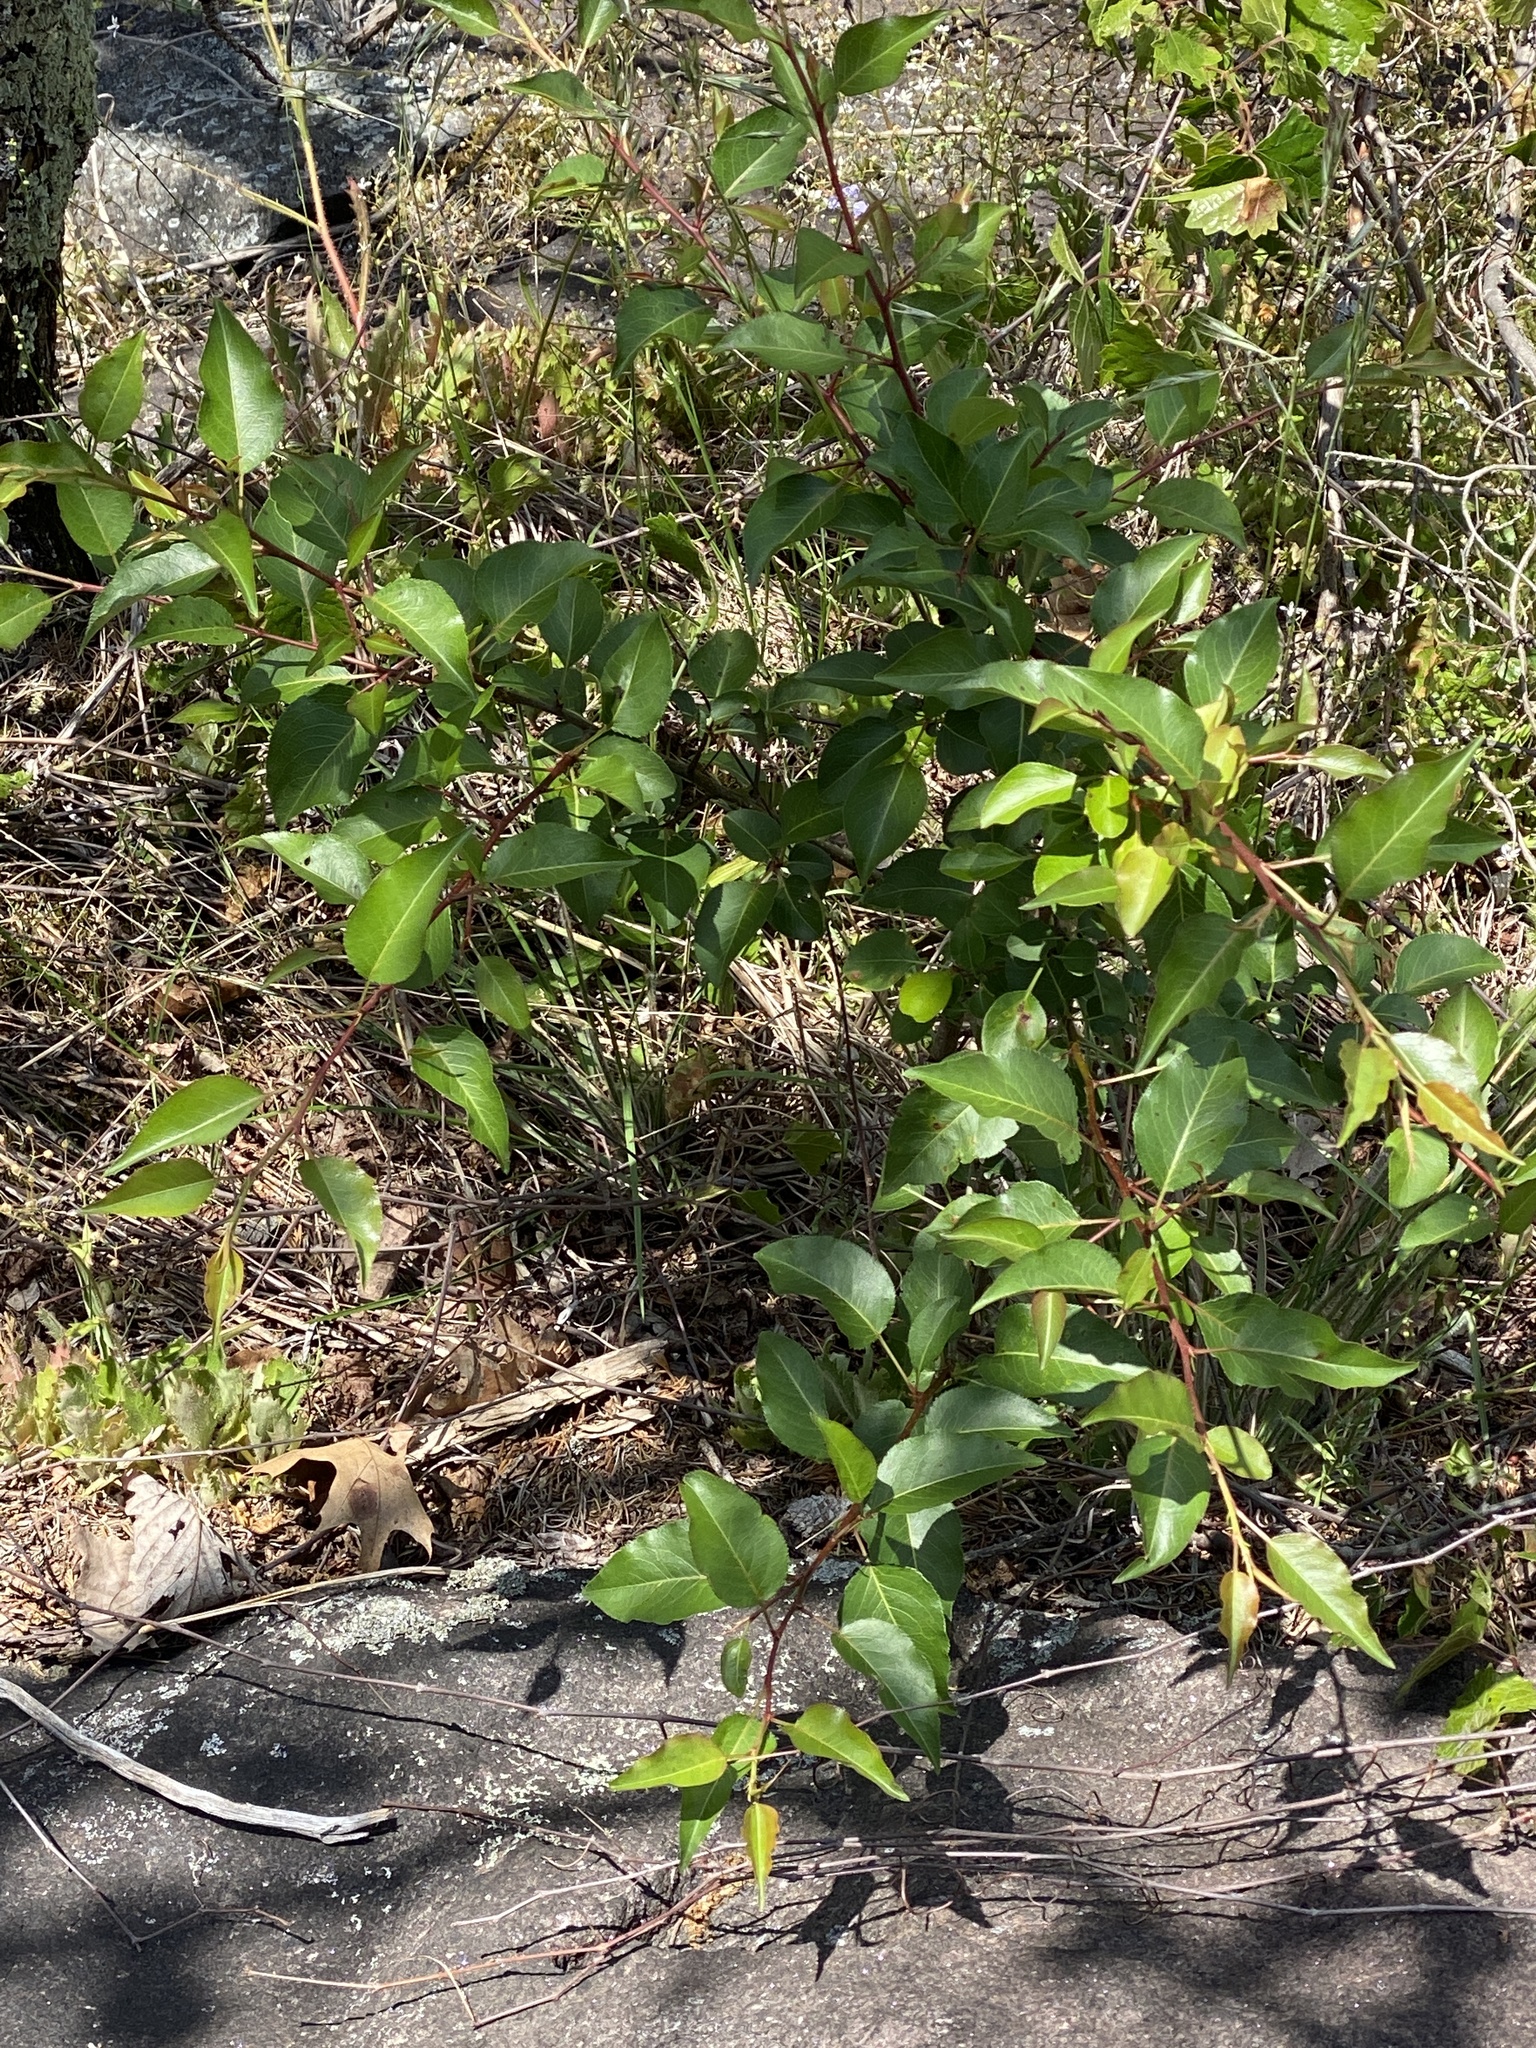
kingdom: Plantae
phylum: Tracheophyta
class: Magnoliopsida
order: Rosales
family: Rosaceae
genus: Pyrus
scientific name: Pyrus calleryana
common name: Callery pear
